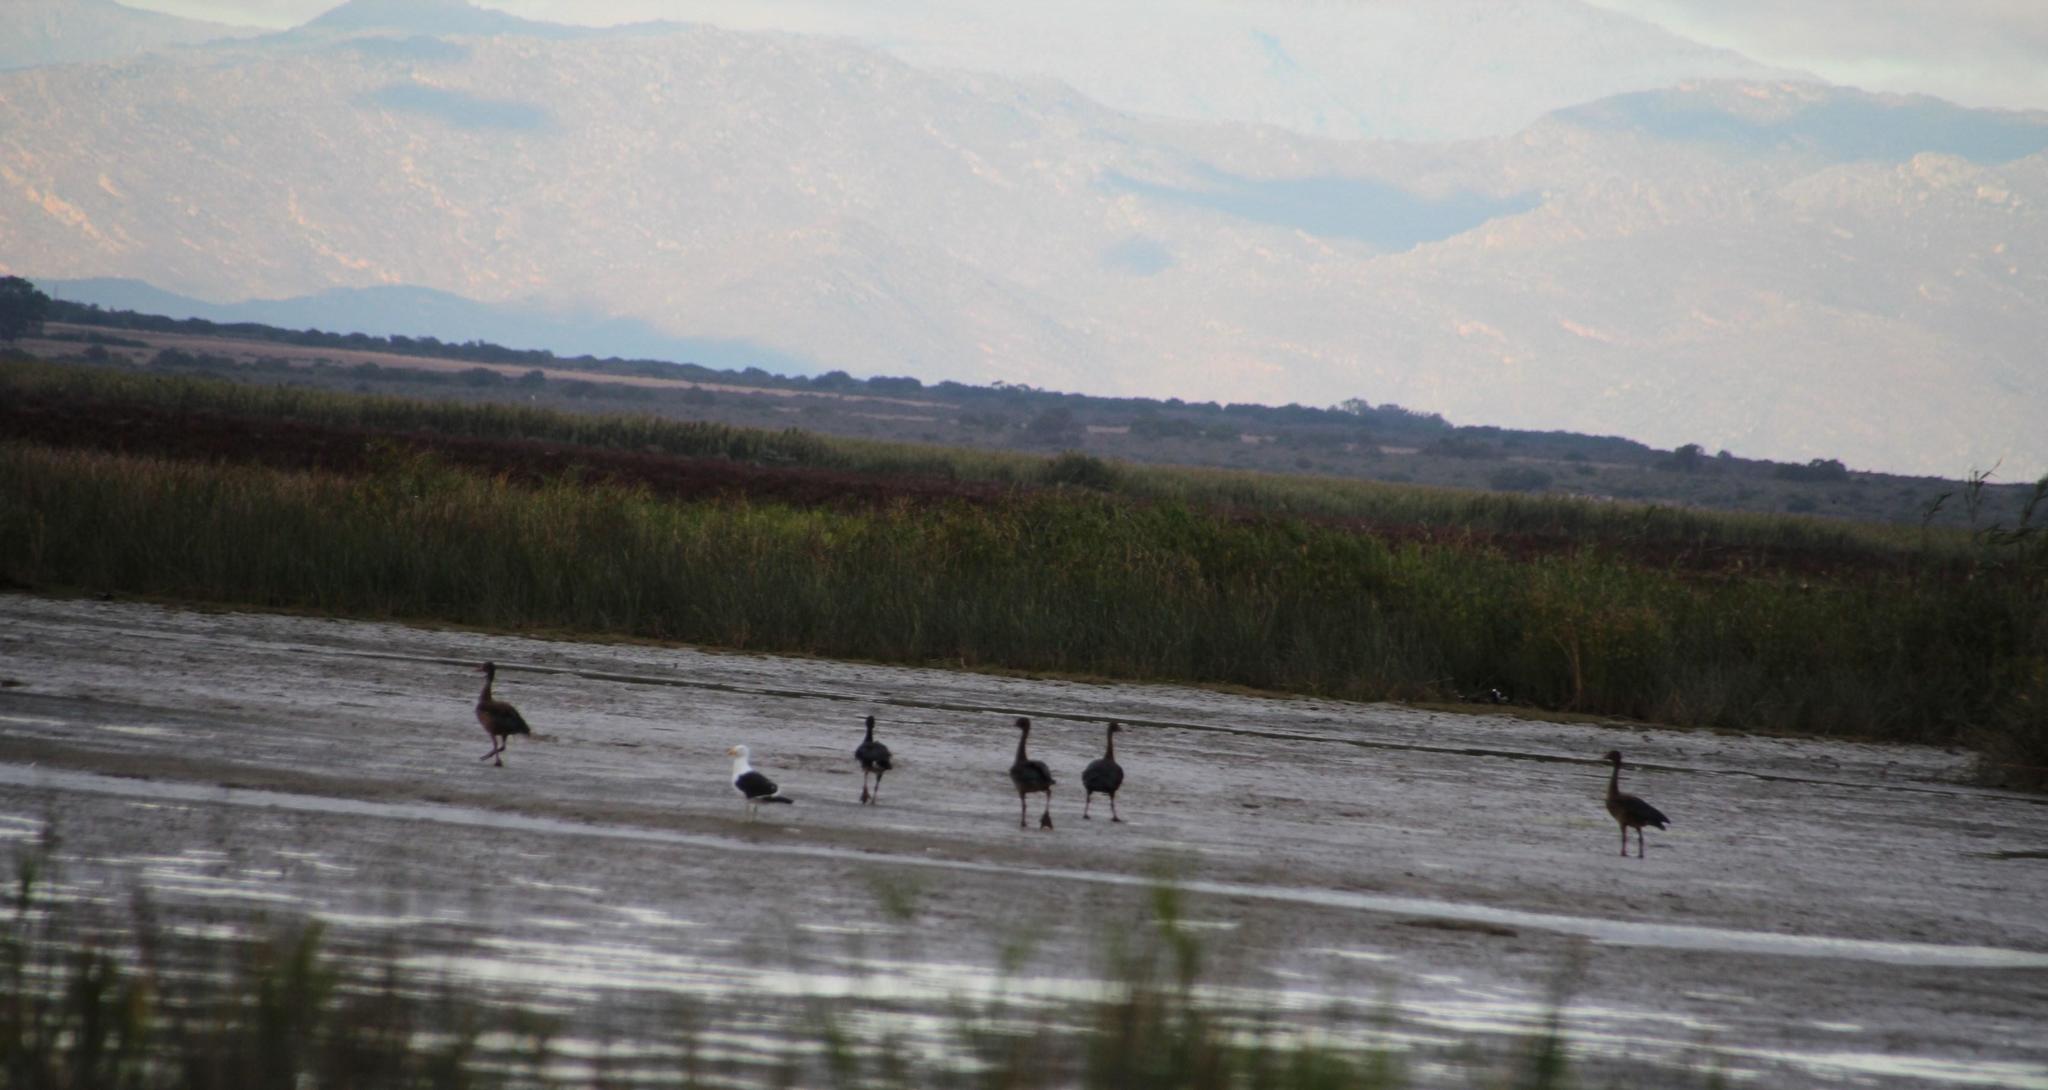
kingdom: Animalia
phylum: Chordata
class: Aves
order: Anseriformes
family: Anatidae
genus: Plectropterus
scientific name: Plectropterus gambensis
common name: Spur-winged goose
